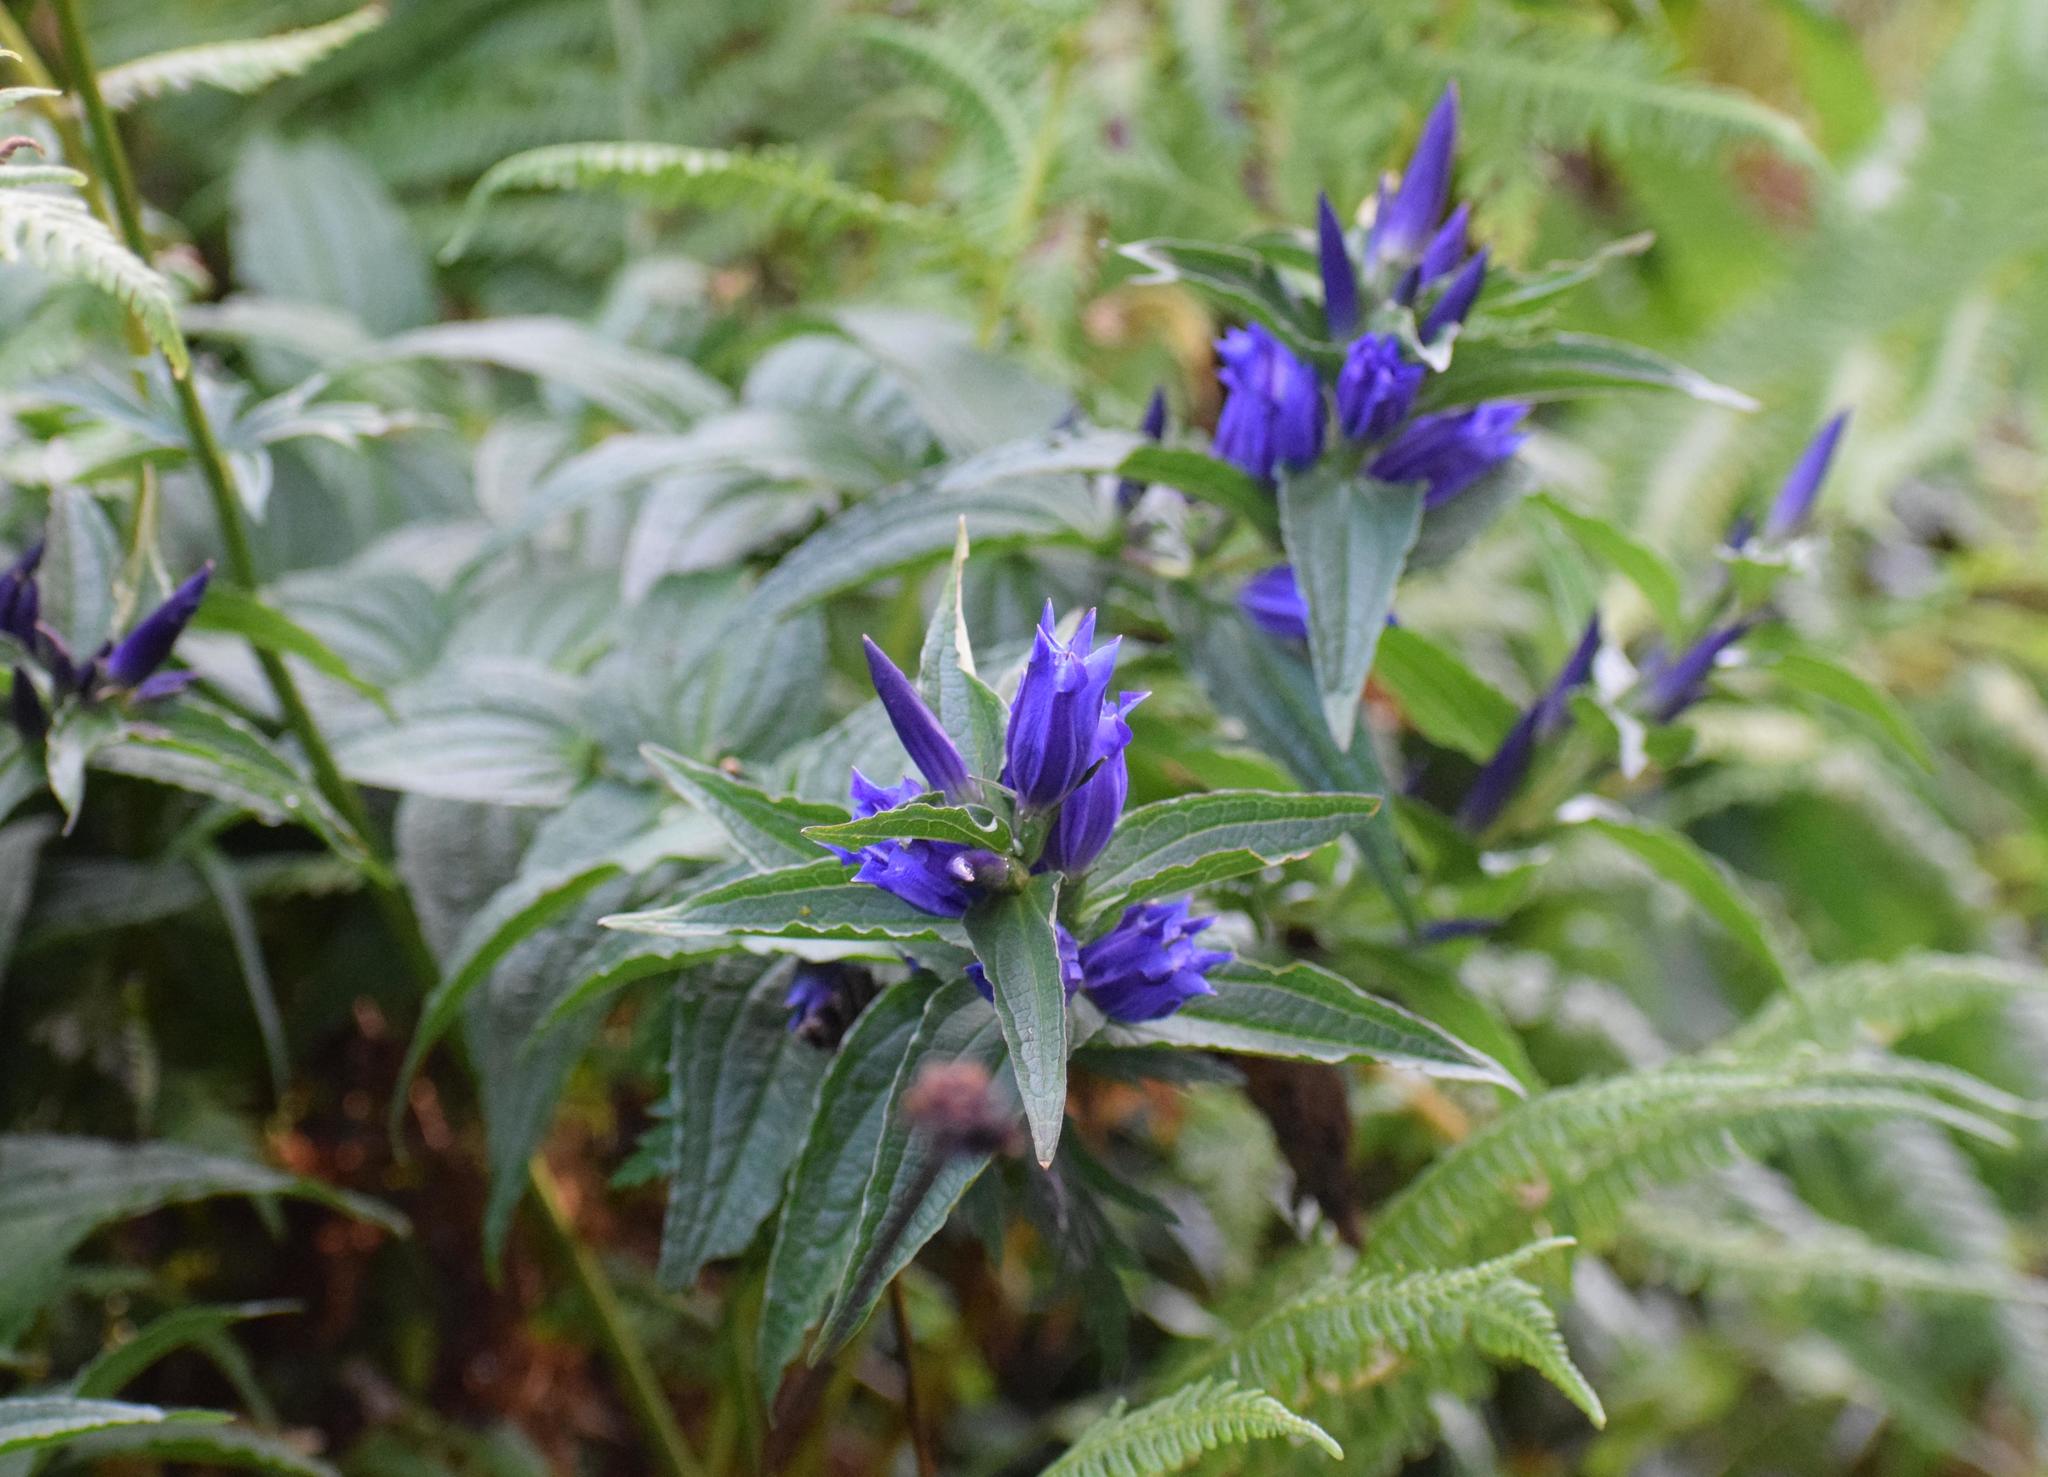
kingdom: Plantae
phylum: Tracheophyta
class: Magnoliopsida
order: Gentianales
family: Gentianaceae
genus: Gentiana
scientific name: Gentiana asclepiadea
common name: Willow gentian
